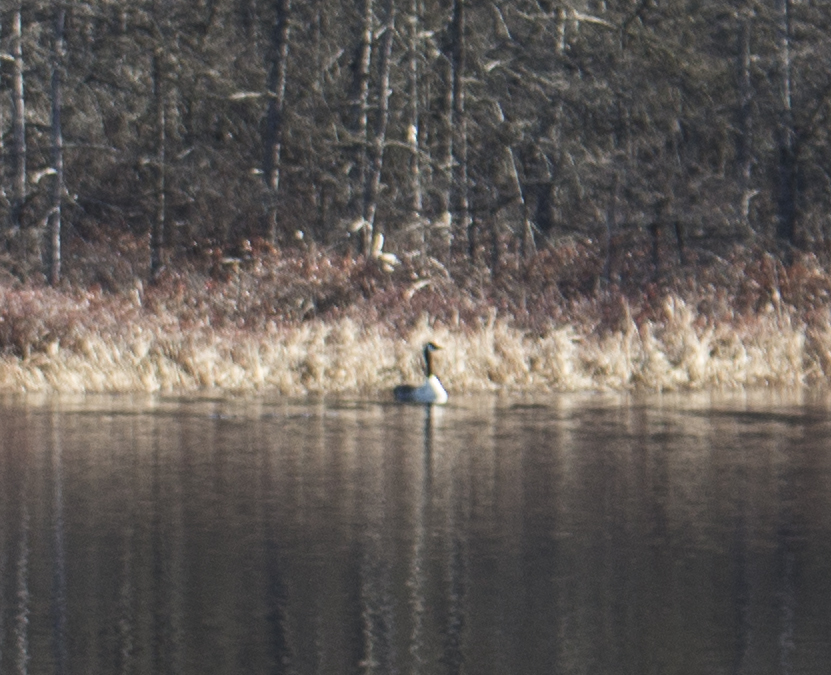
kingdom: Animalia
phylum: Chordata
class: Aves
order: Anseriformes
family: Anatidae
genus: Branta
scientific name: Branta canadensis
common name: Canada goose
